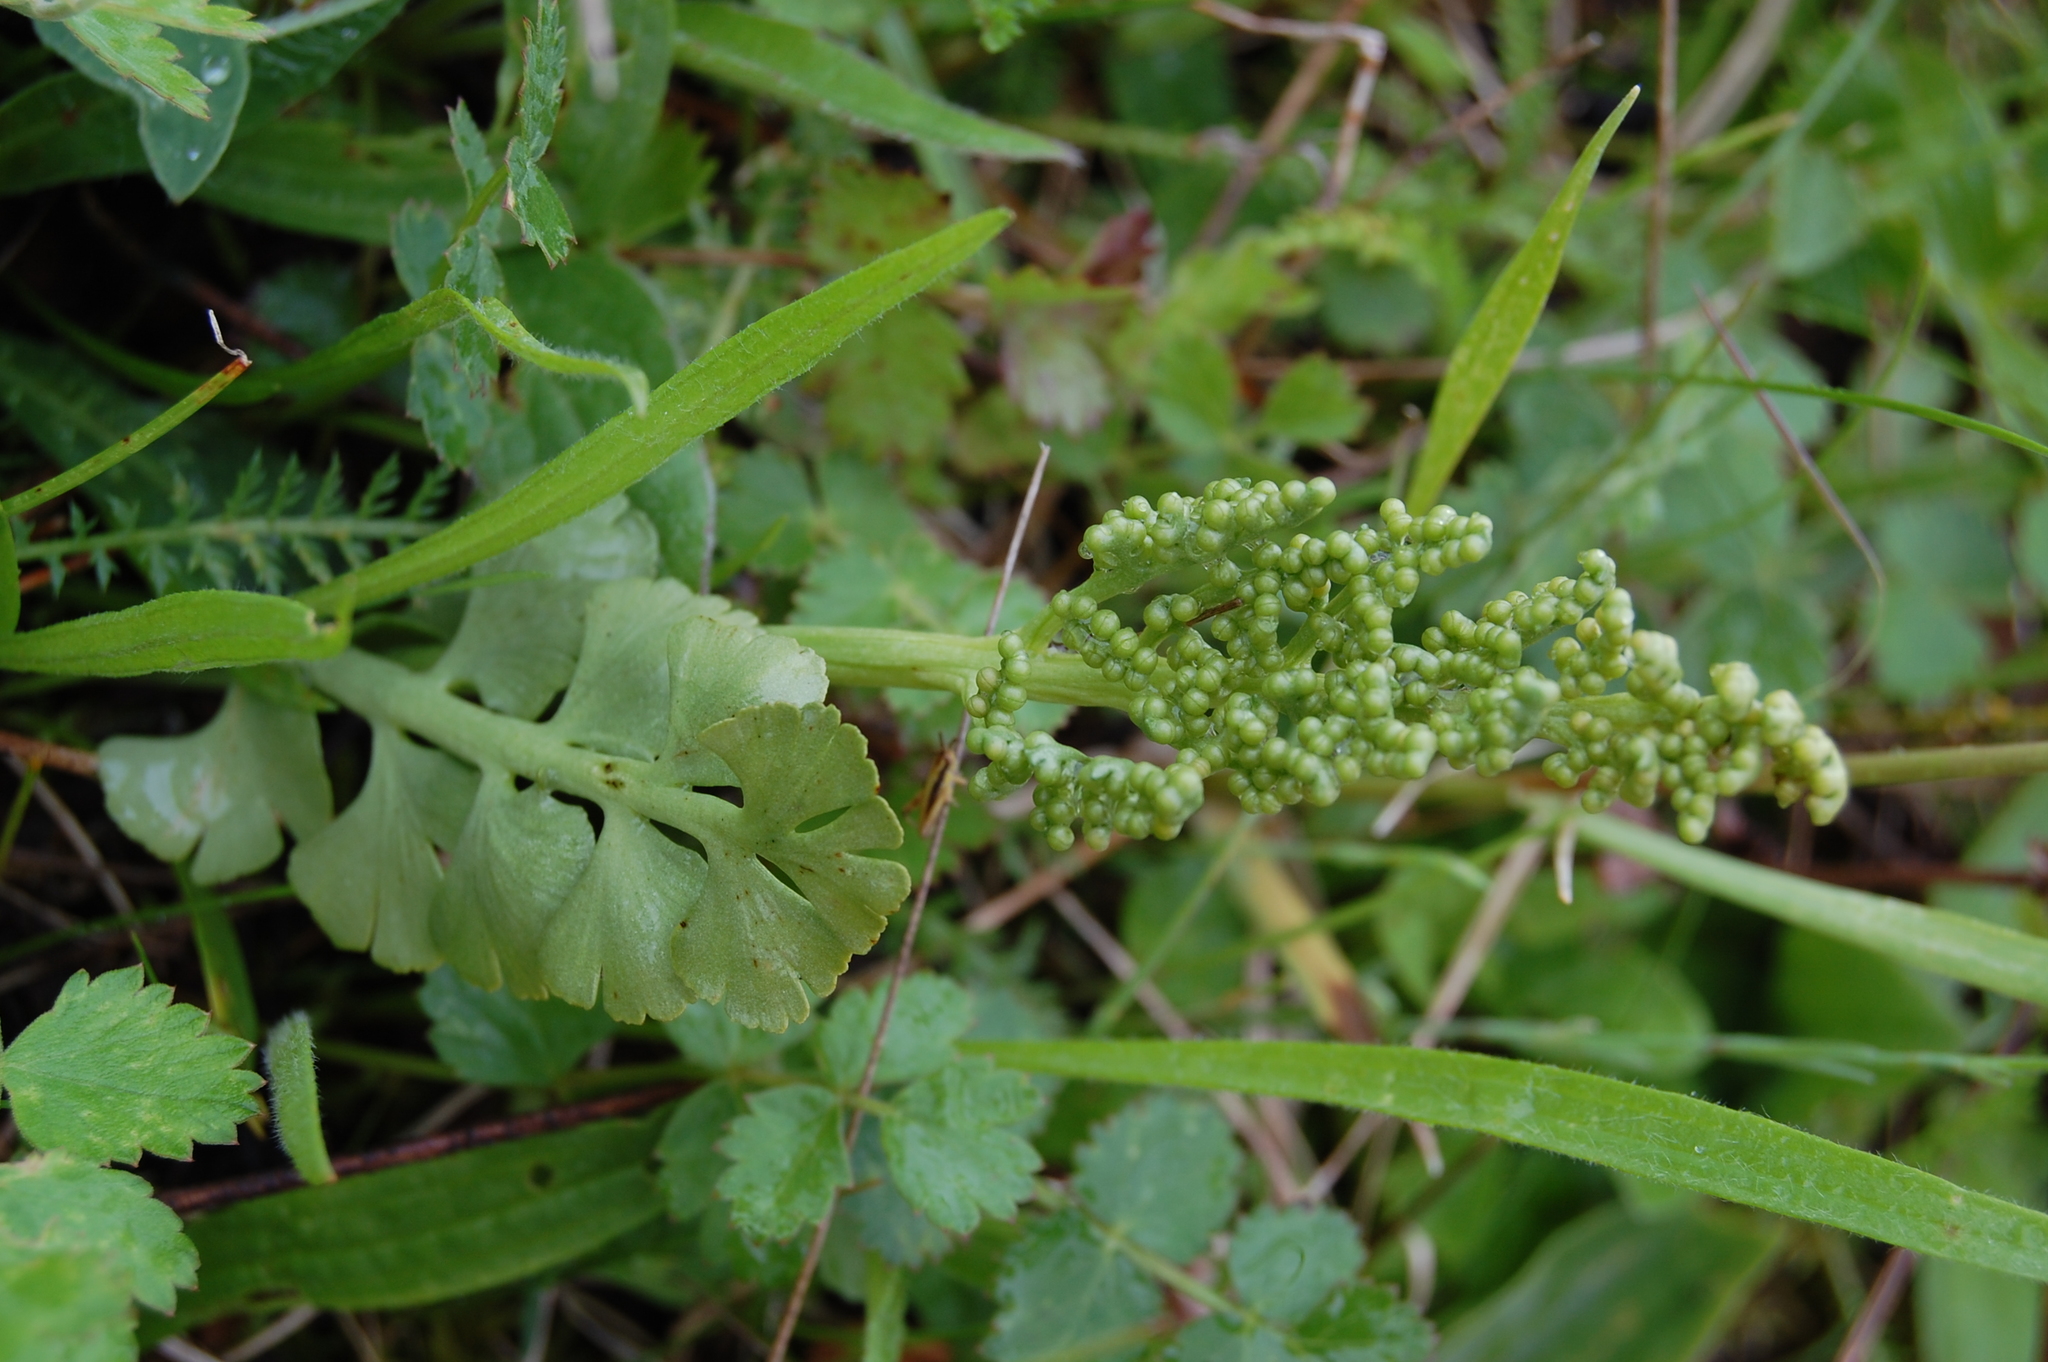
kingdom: Plantae
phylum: Tracheophyta
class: Polypodiopsida
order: Ophioglossales
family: Ophioglossaceae
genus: Botrychium
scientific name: Botrychium lunaria
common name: Moonwort
